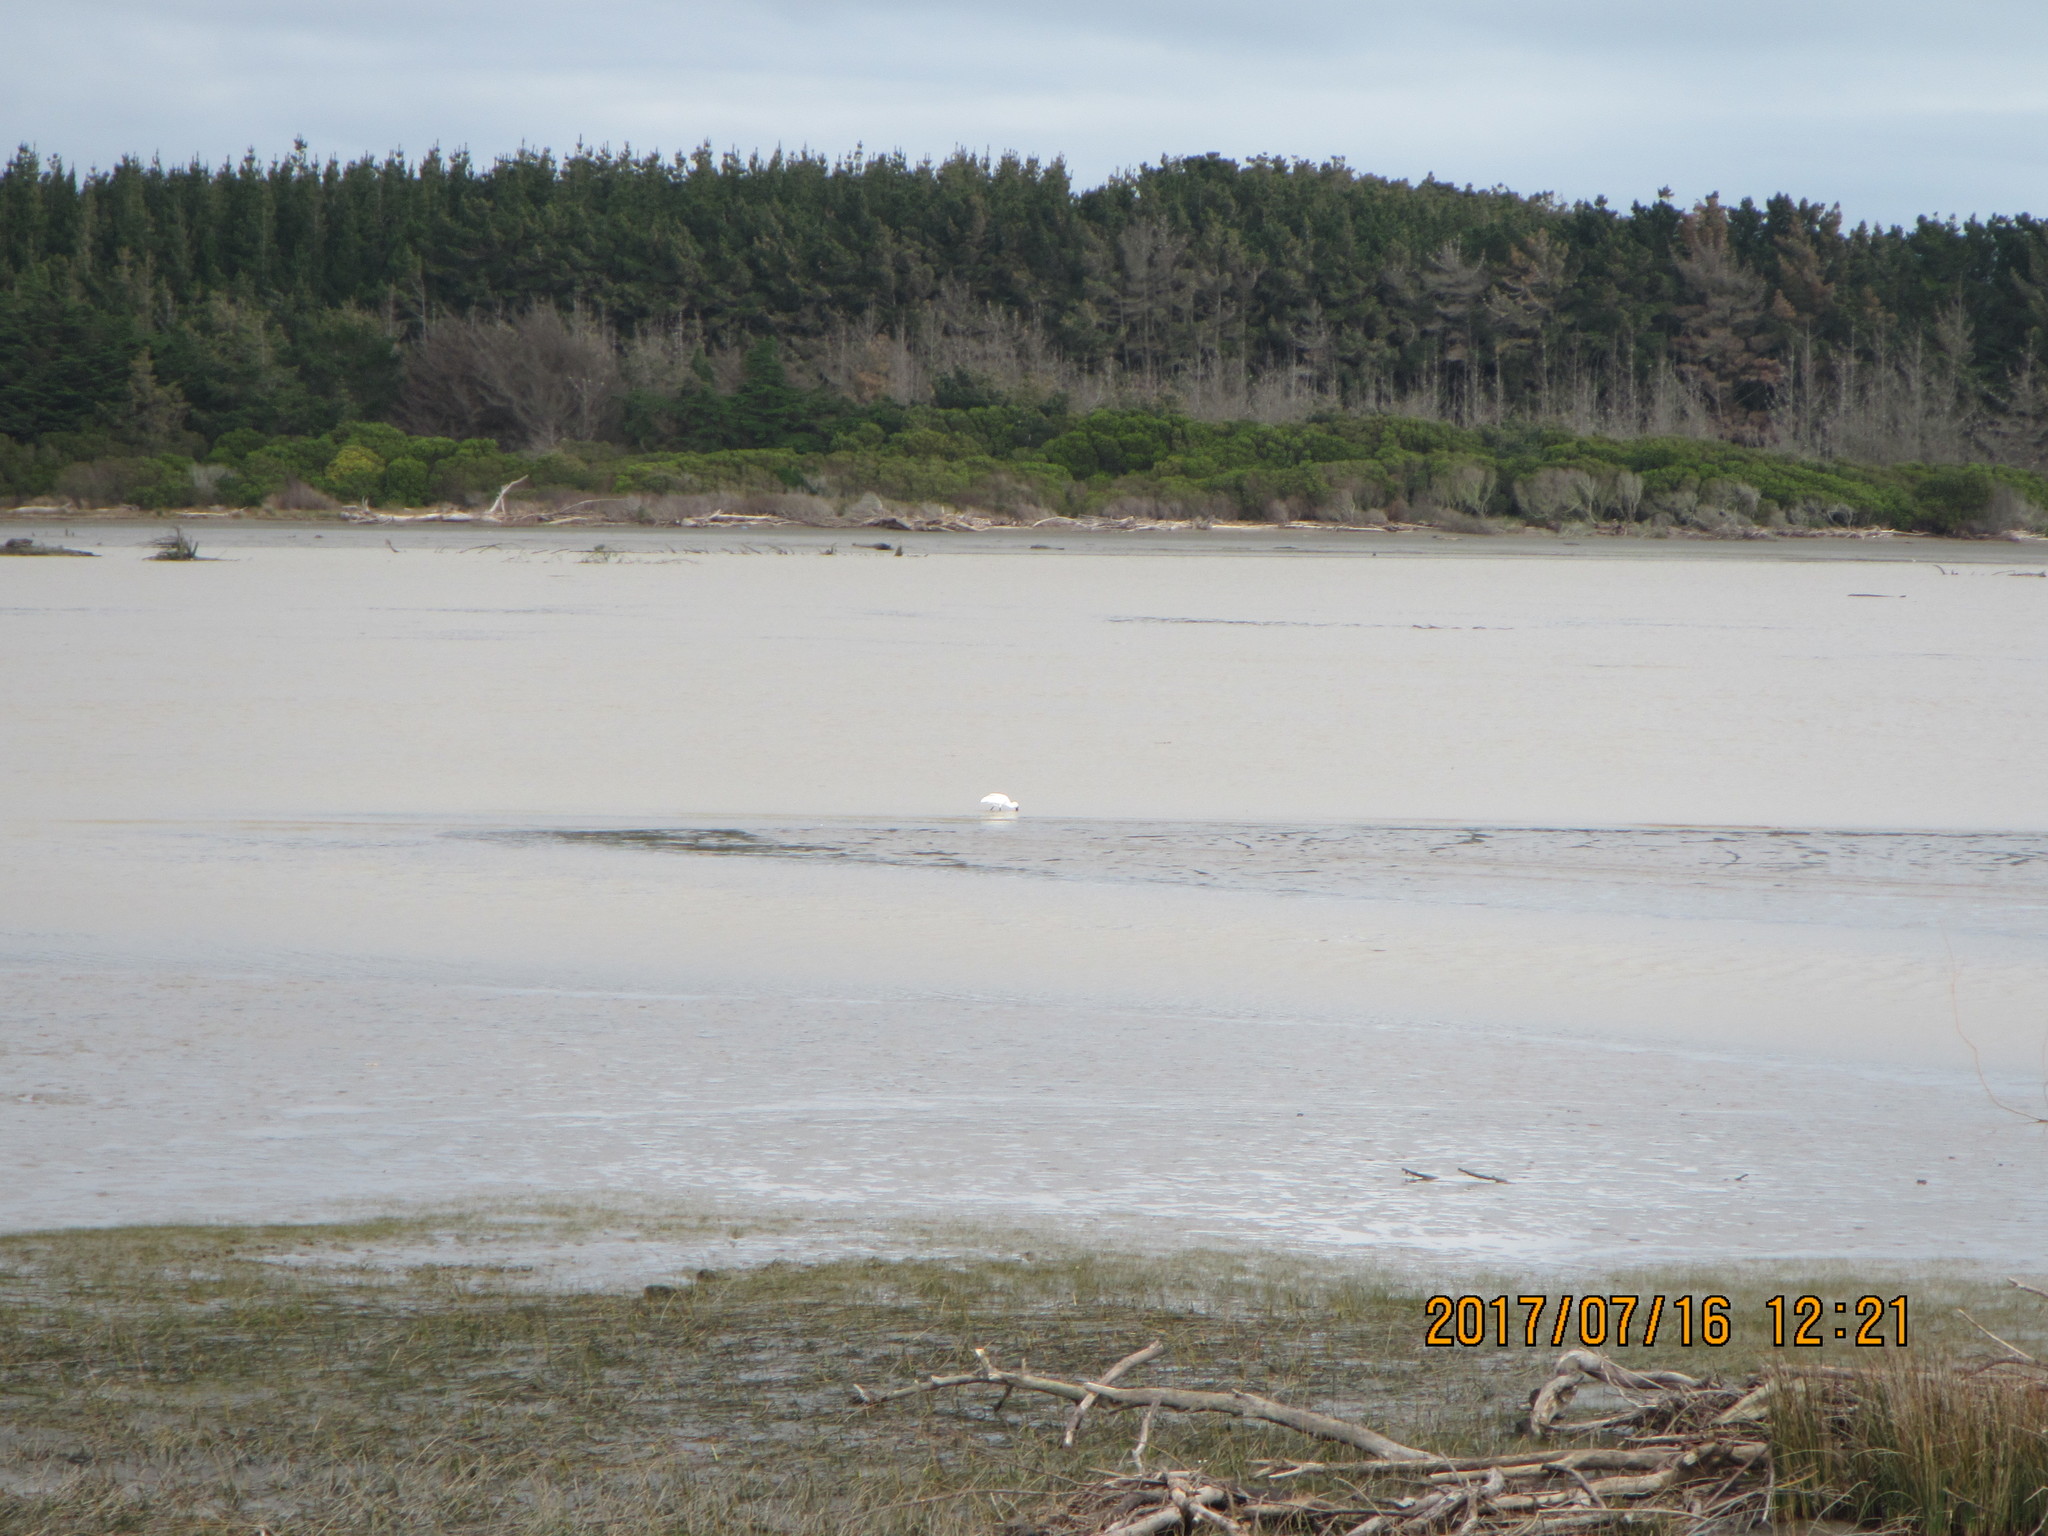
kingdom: Animalia
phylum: Chordata
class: Aves
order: Pelecaniformes
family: Threskiornithidae
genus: Platalea
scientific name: Platalea regia
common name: Royal spoonbill
